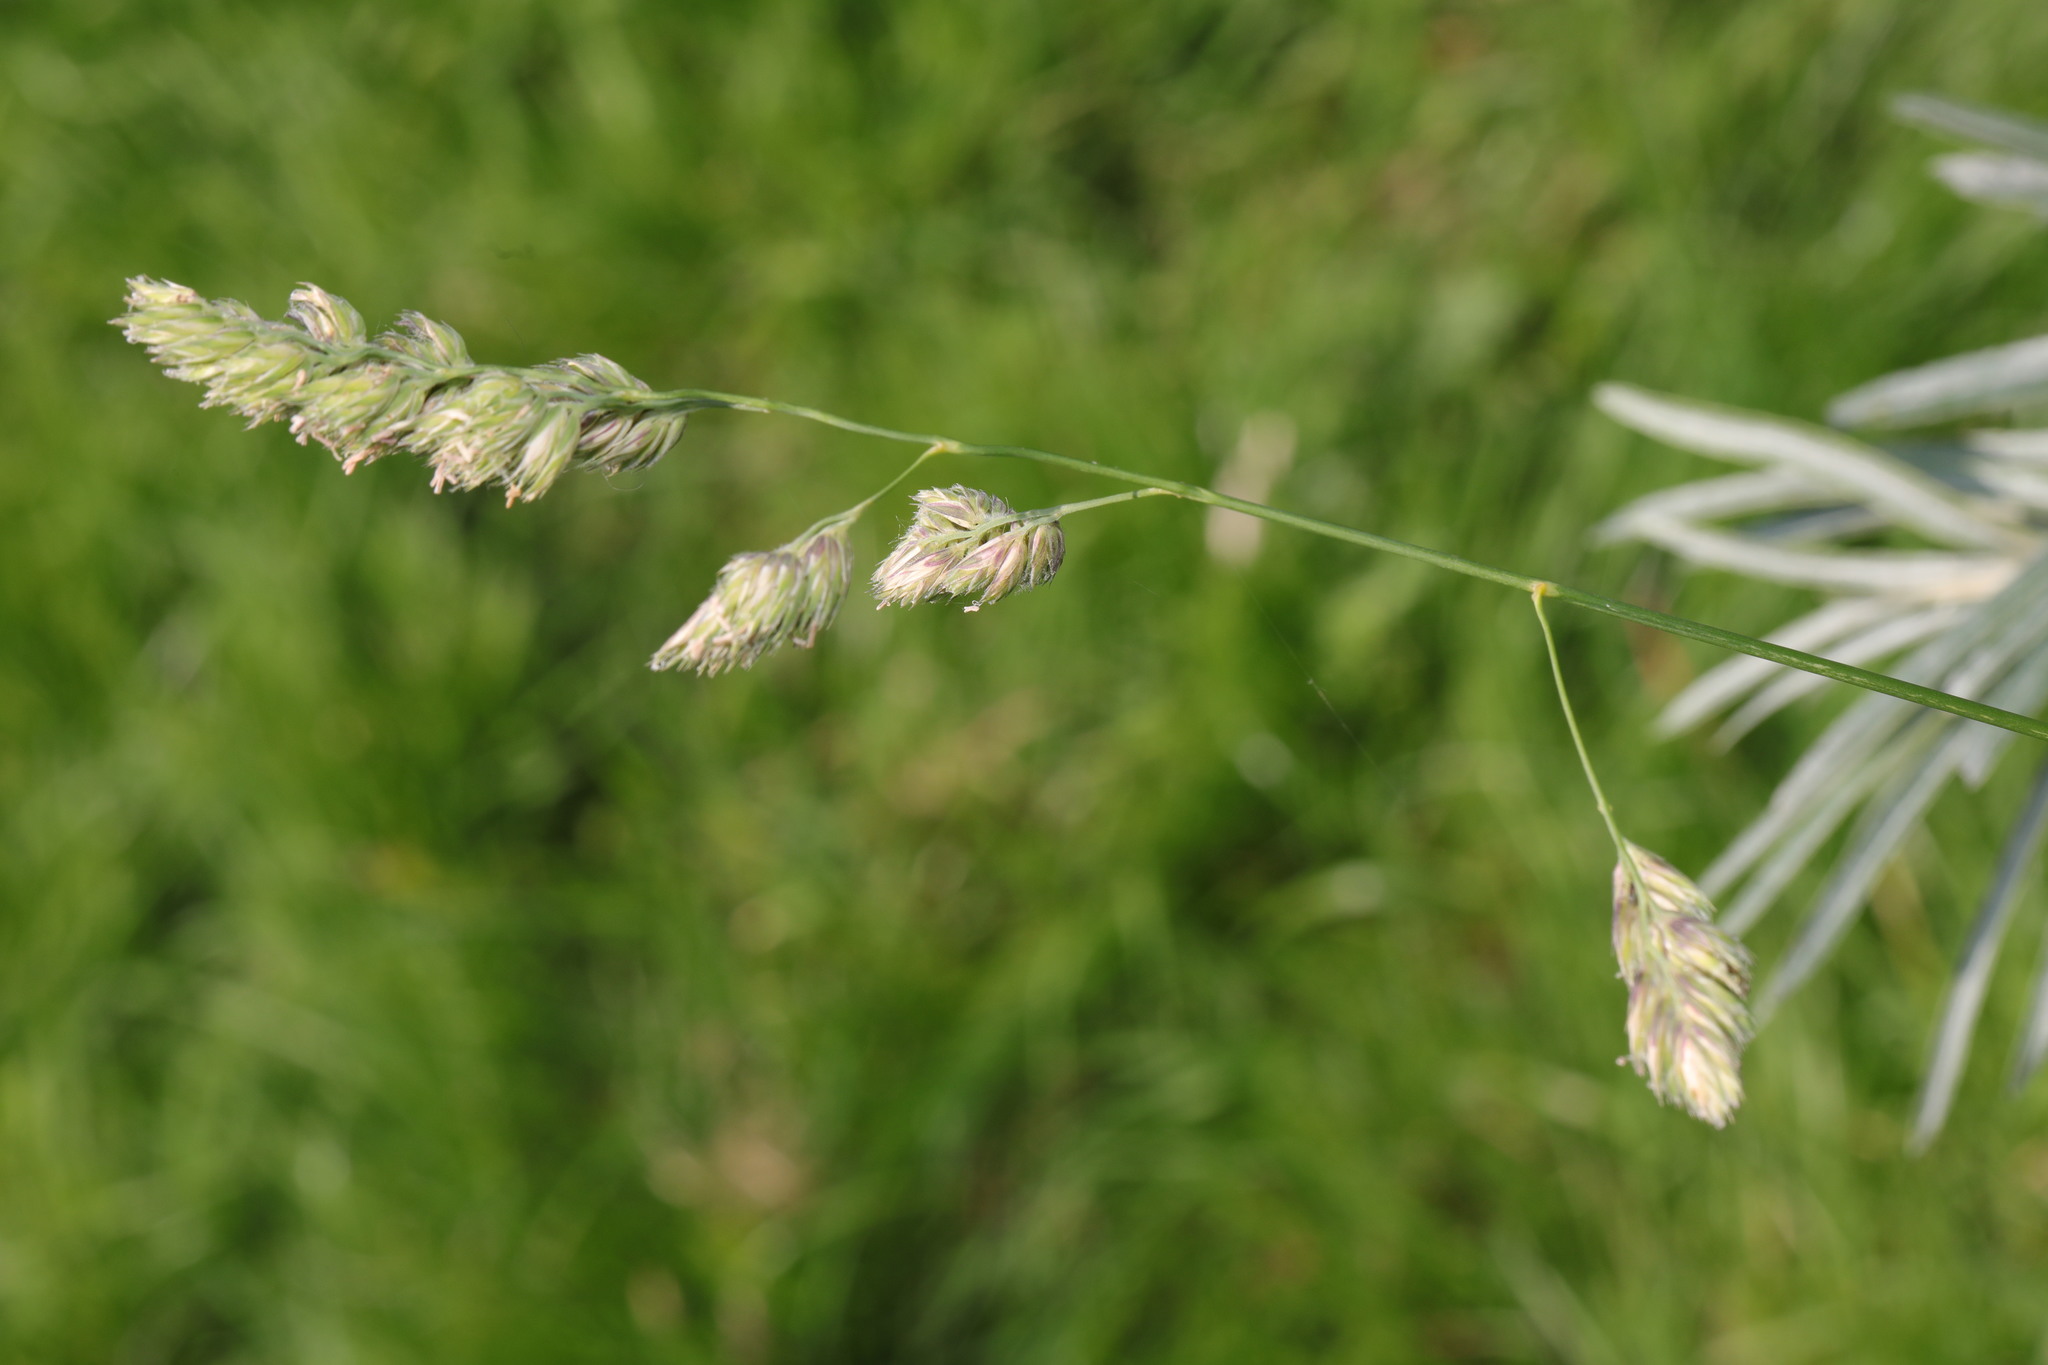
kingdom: Plantae
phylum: Tracheophyta
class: Liliopsida
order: Poales
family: Poaceae
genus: Dactylis
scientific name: Dactylis glomerata
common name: Orchardgrass
